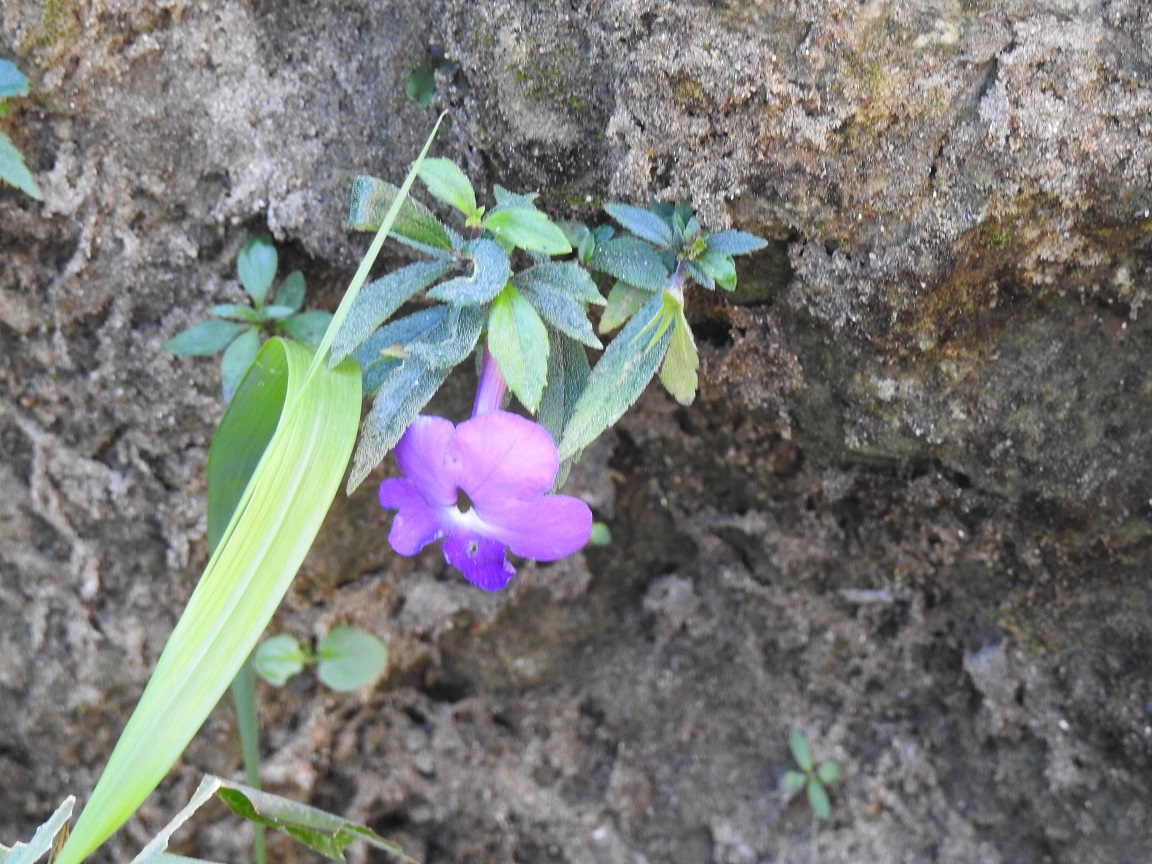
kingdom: Plantae
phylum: Tracheophyta
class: Magnoliopsida
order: Lamiales
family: Gesneriaceae
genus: Achimenes
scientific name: Achimenes cettoana
